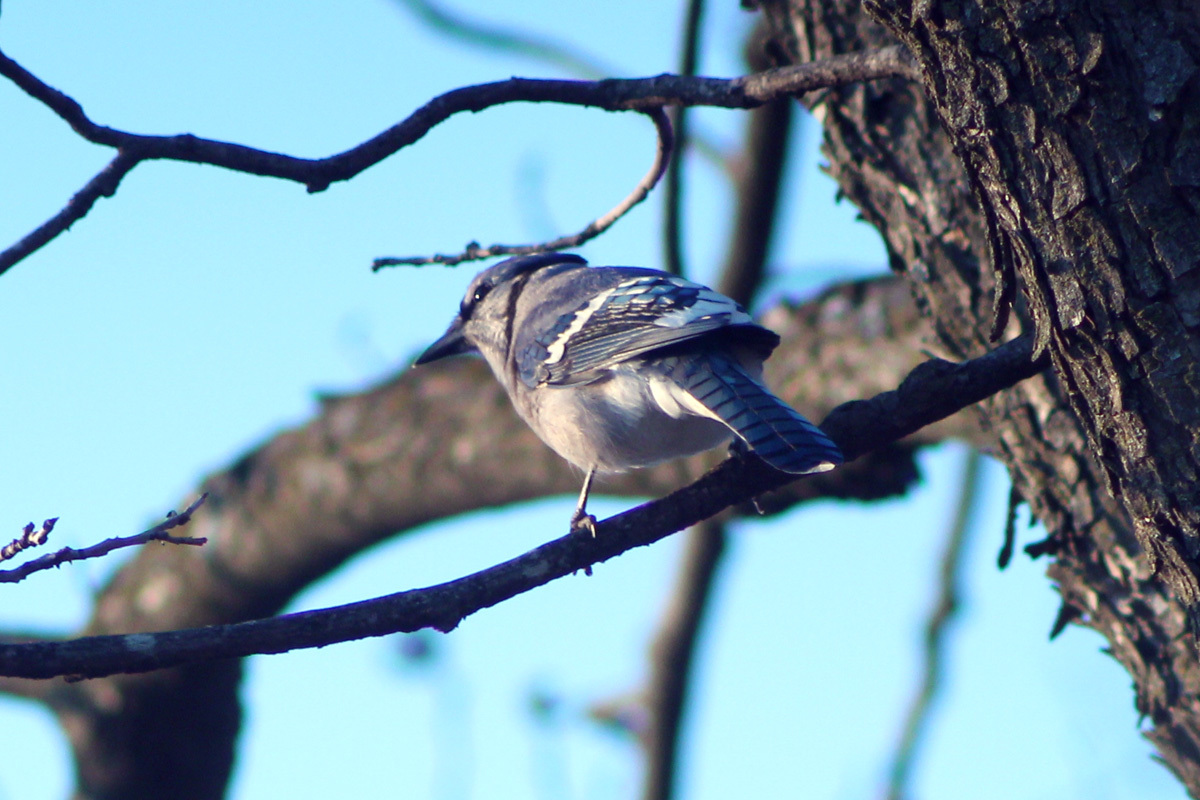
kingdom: Animalia
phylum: Chordata
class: Aves
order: Passeriformes
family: Corvidae
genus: Cyanocitta
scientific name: Cyanocitta cristata
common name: Blue jay
